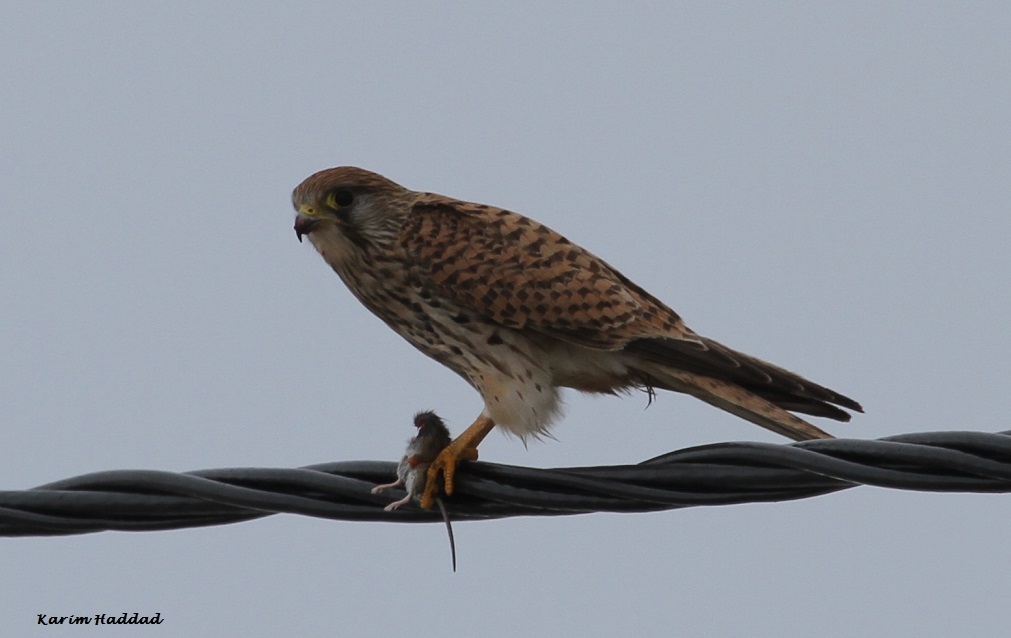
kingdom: Animalia
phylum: Chordata
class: Aves
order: Falconiformes
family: Falconidae
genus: Falco
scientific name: Falco tinnunculus
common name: Common kestrel
